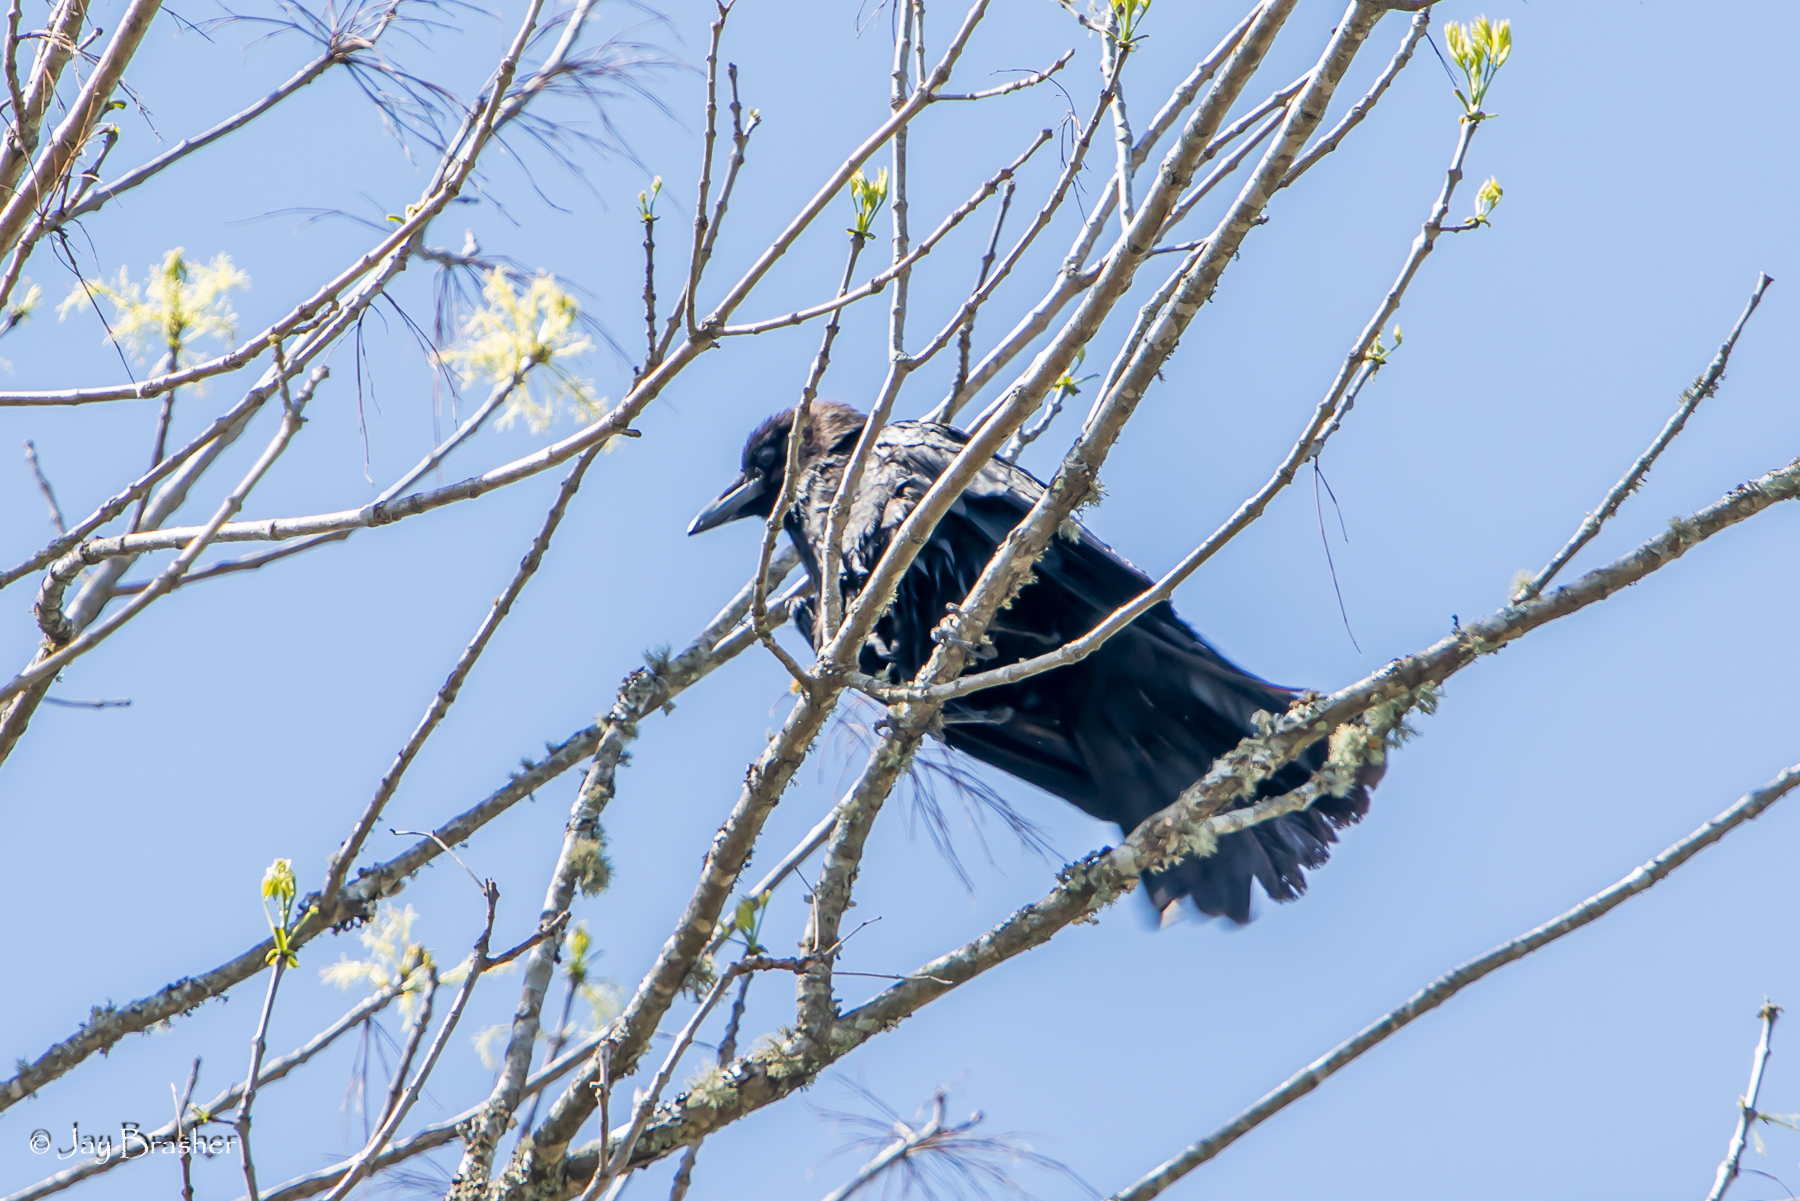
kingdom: Animalia
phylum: Chordata
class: Aves
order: Passeriformes
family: Corvidae
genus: Corvus
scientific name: Corvus brachyrhynchos
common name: American crow
